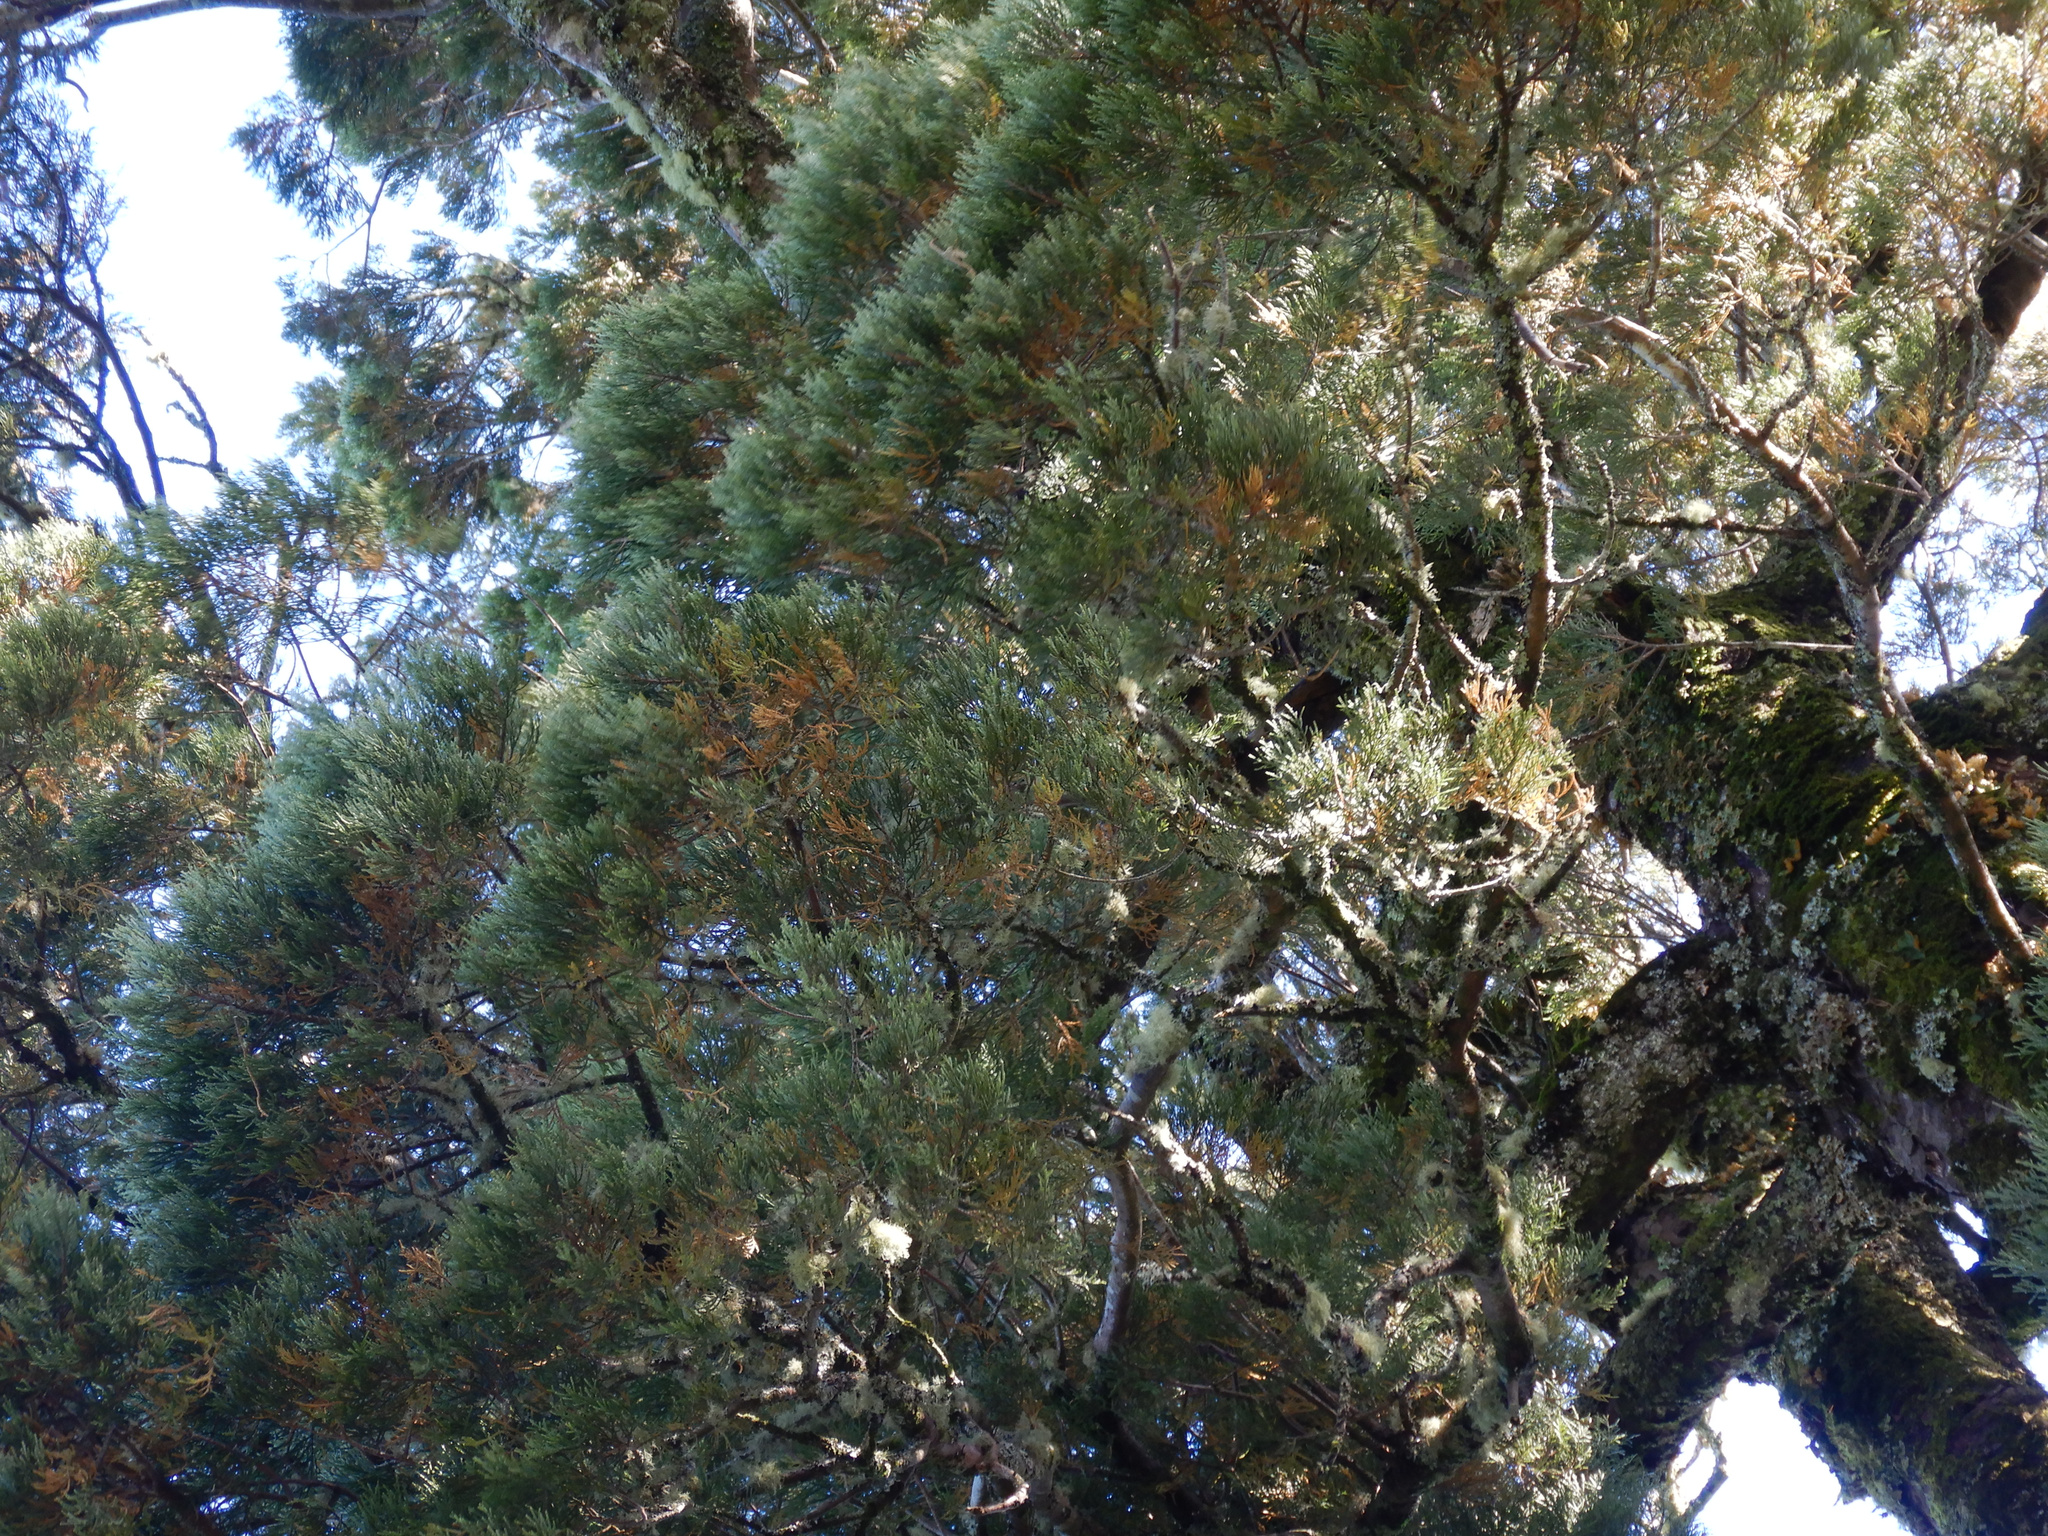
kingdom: Plantae
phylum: Tracheophyta
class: Pinopsida
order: Pinales
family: Podocarpaceae
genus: Dacrycarpus
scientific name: Dacrycarpus dacrydioides
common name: White pine
